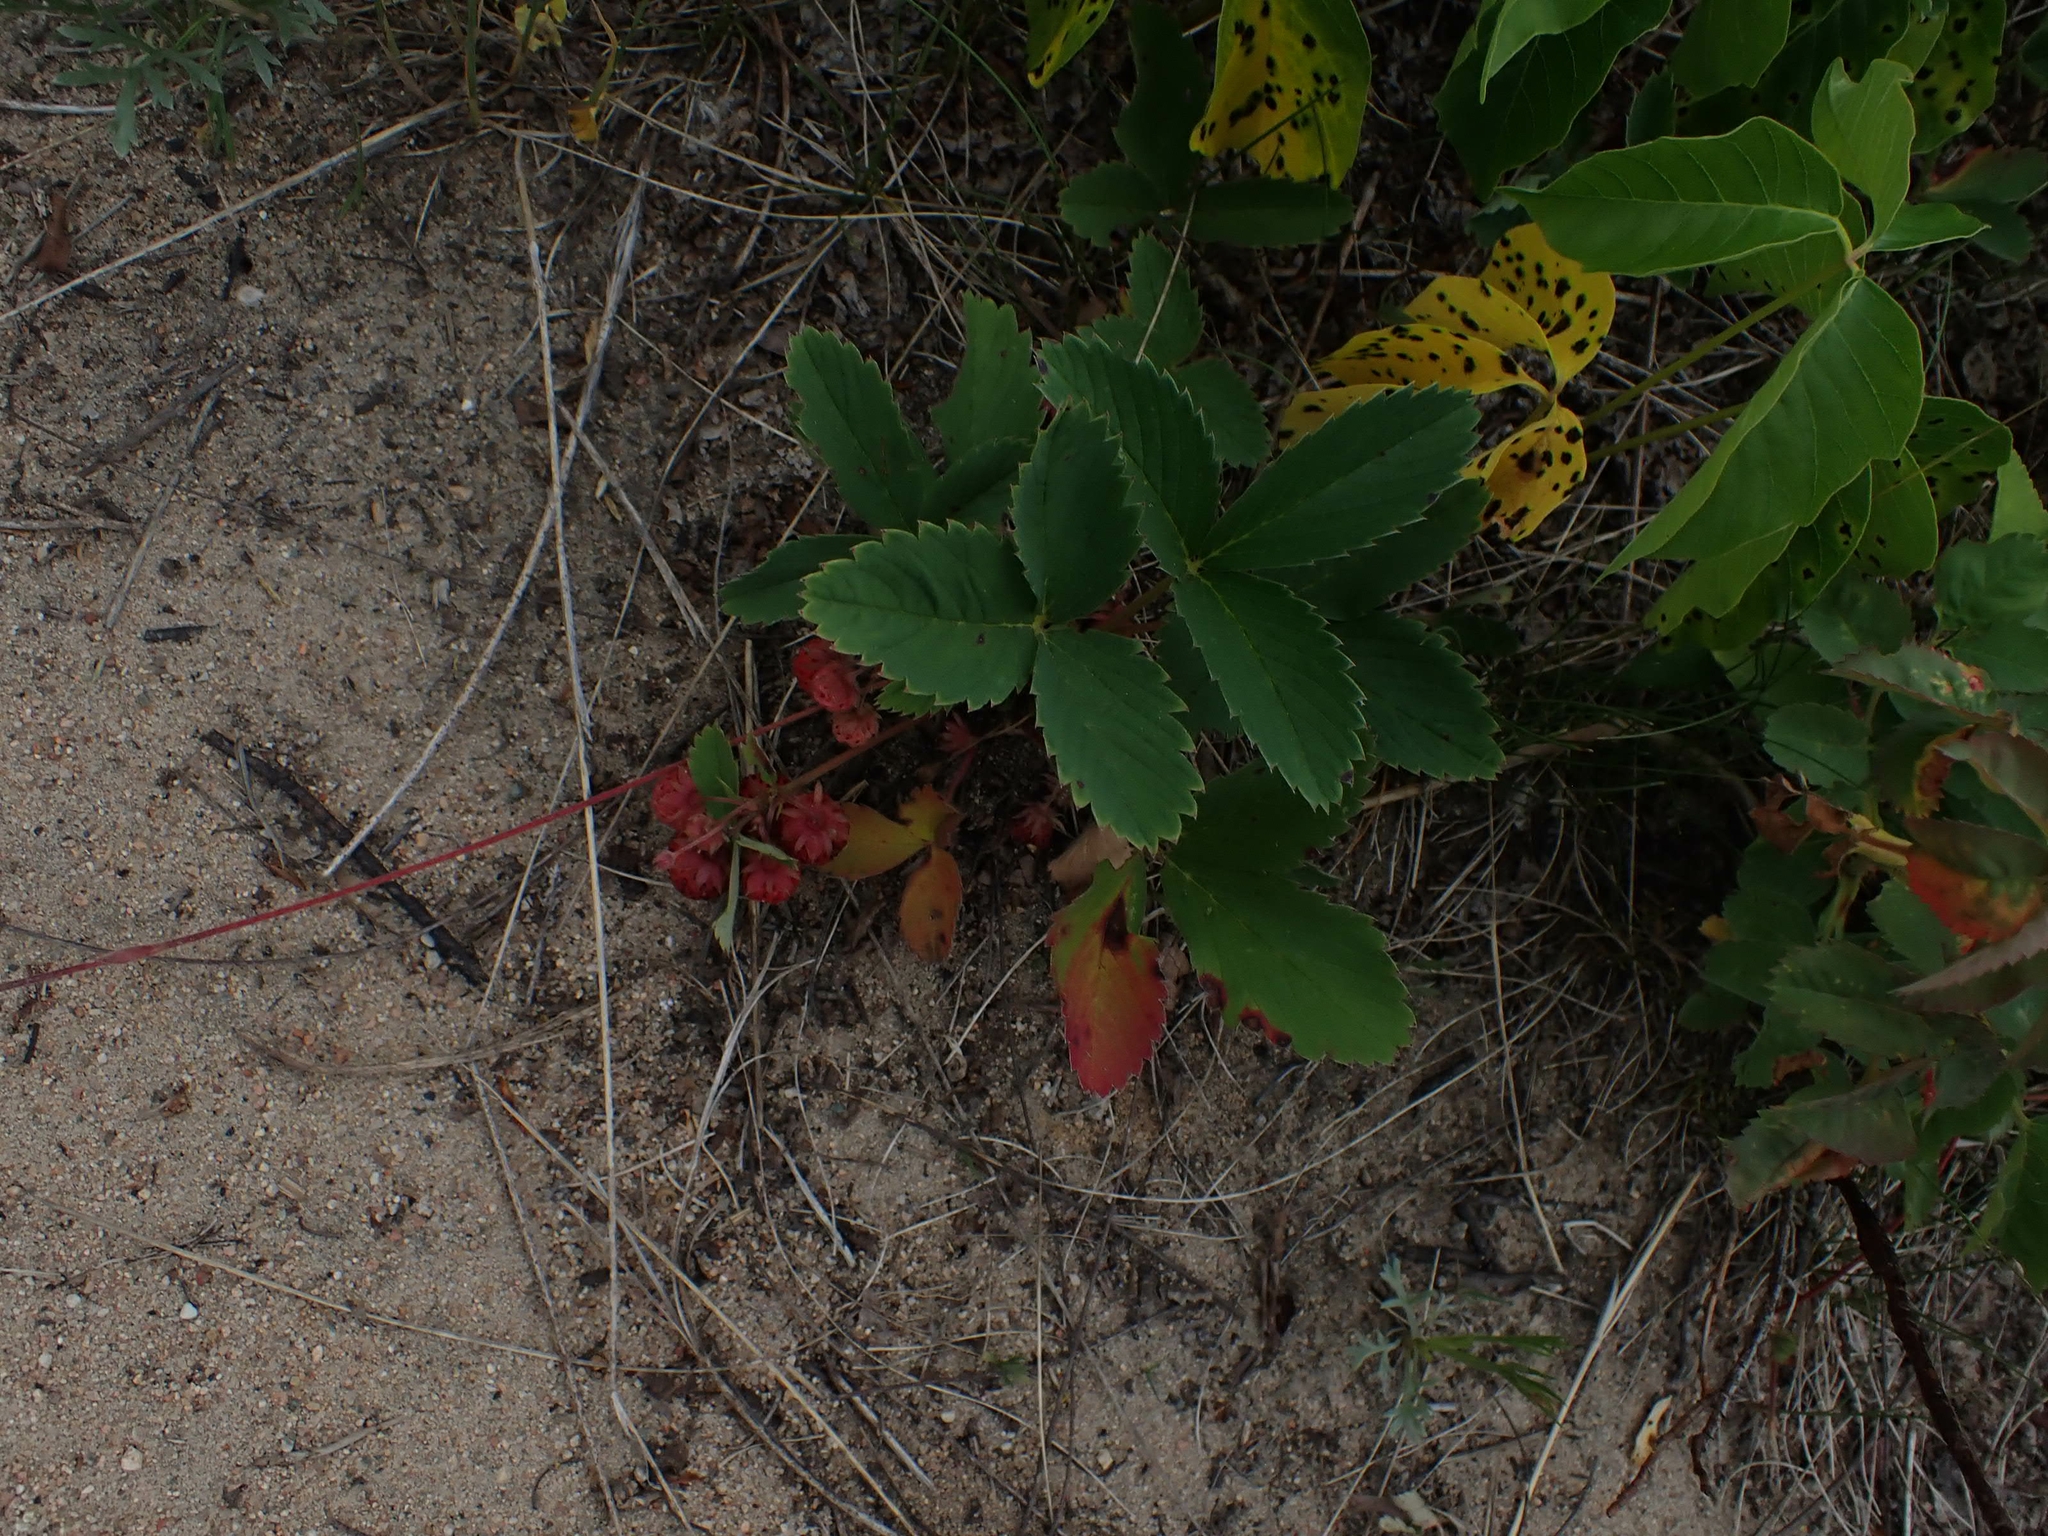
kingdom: Plantae
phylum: Tracheophyta
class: Magnoliopsida
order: Rosales
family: Rosaceae
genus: Fragaria
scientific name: Fragaria virginiana
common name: Thickleaved wild strawberry
